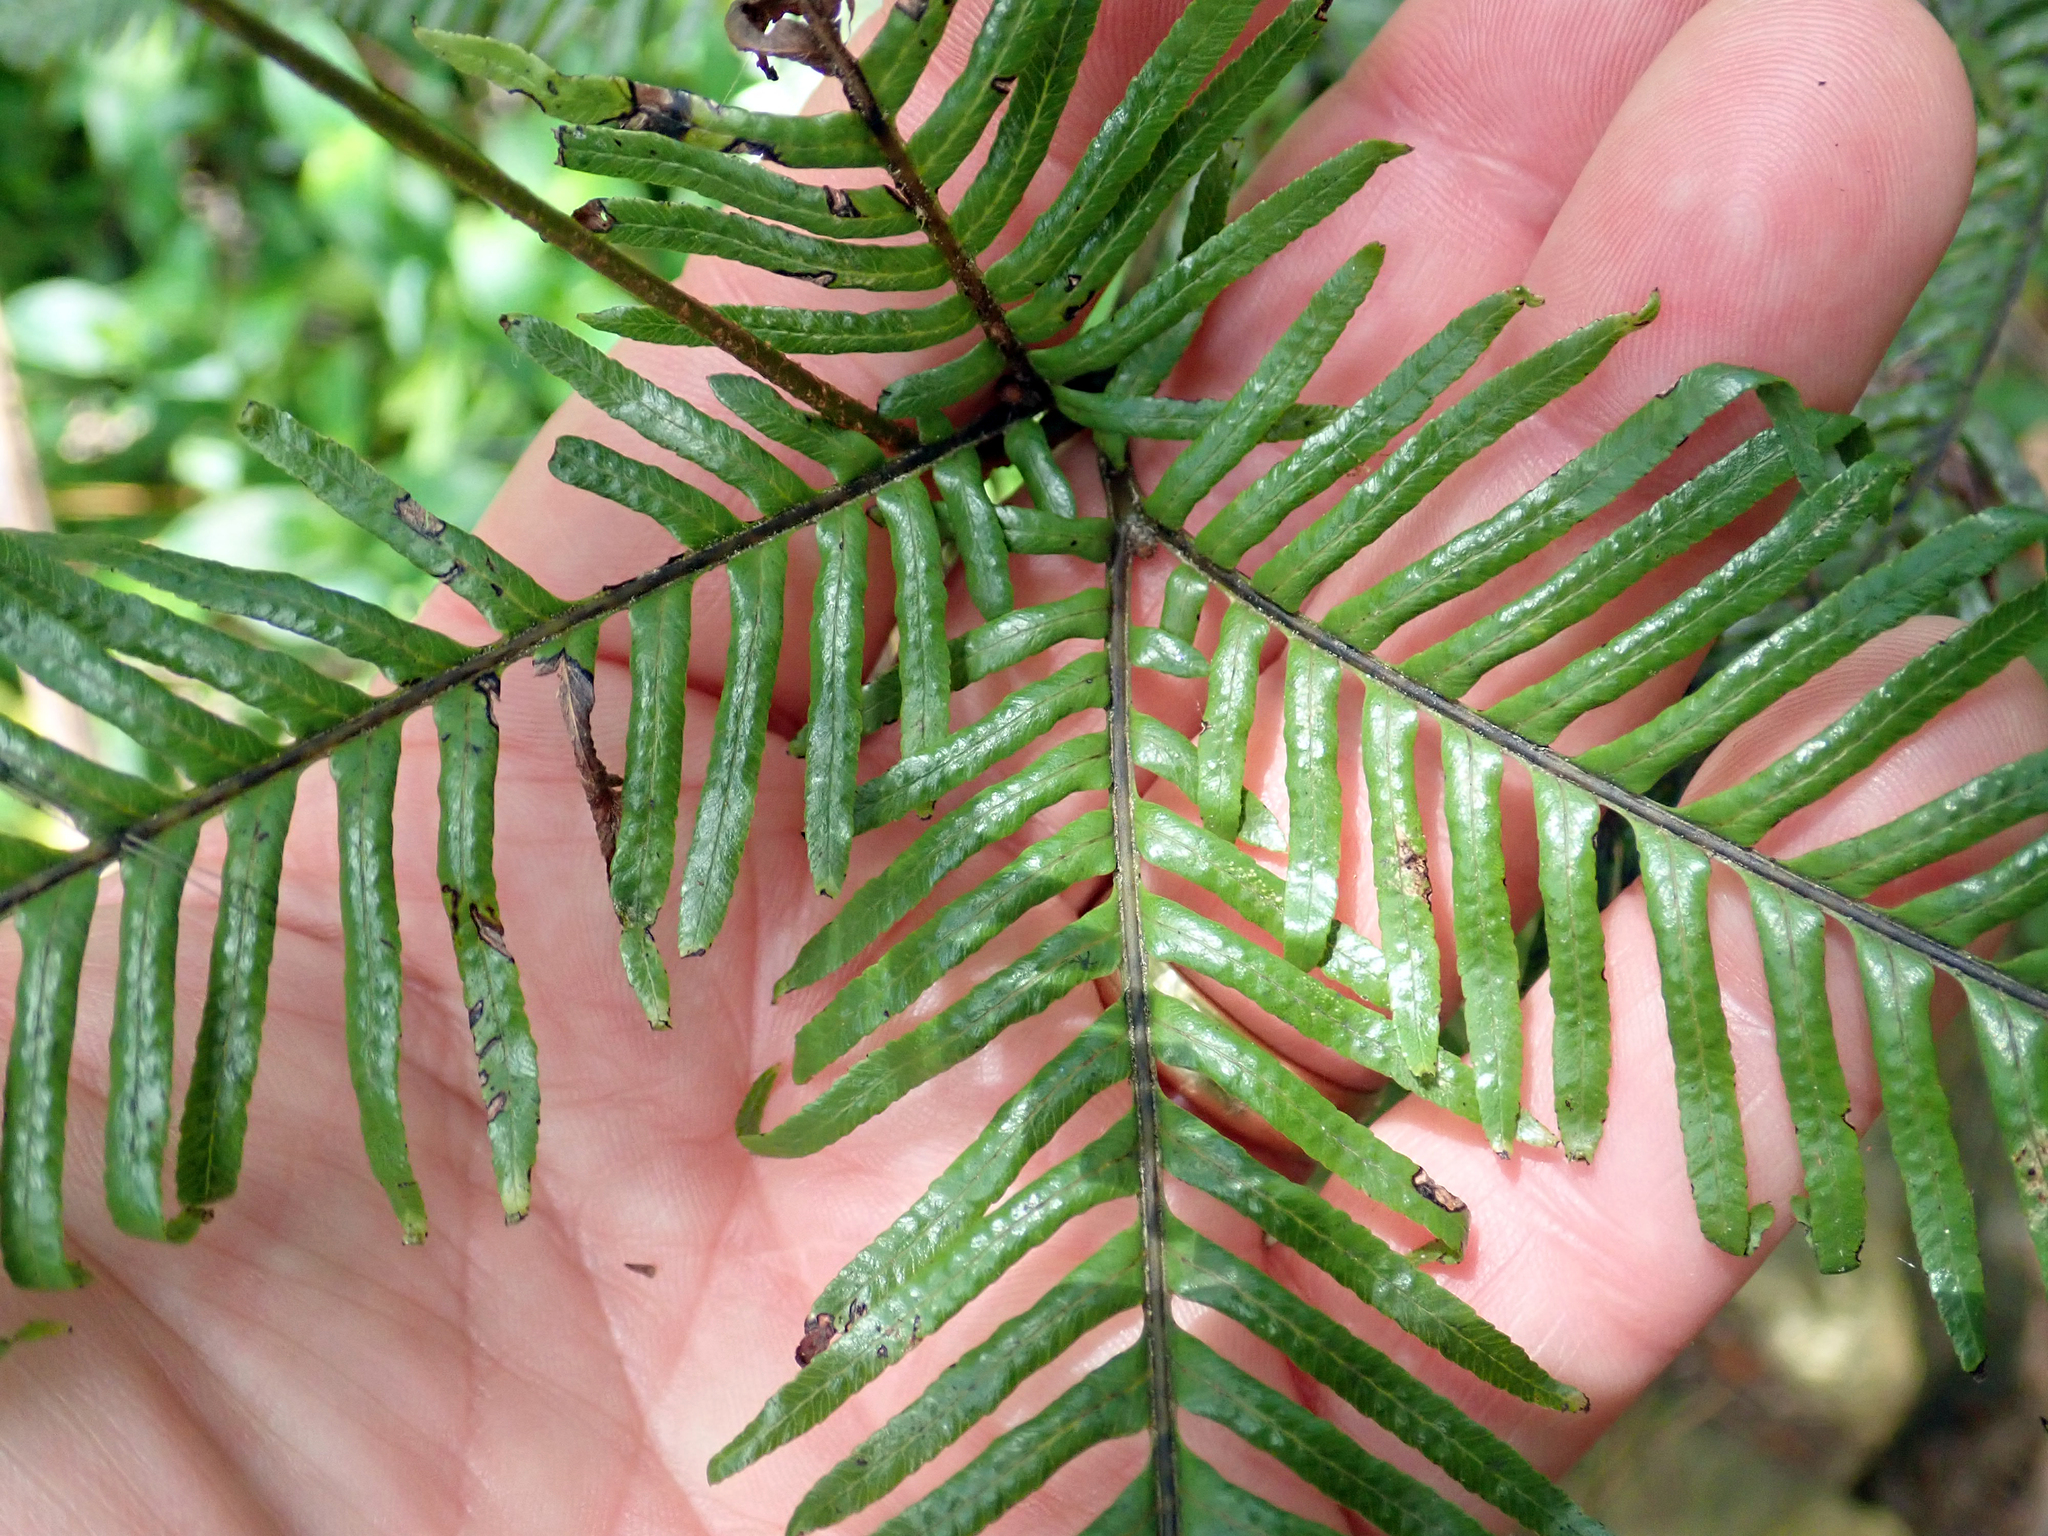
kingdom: Plantae
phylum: Tracheophyta
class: Polypodiopsida
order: Gleicheniales
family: Gleicheniaceae
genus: Sticherus
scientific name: Sticherus flabellatus
